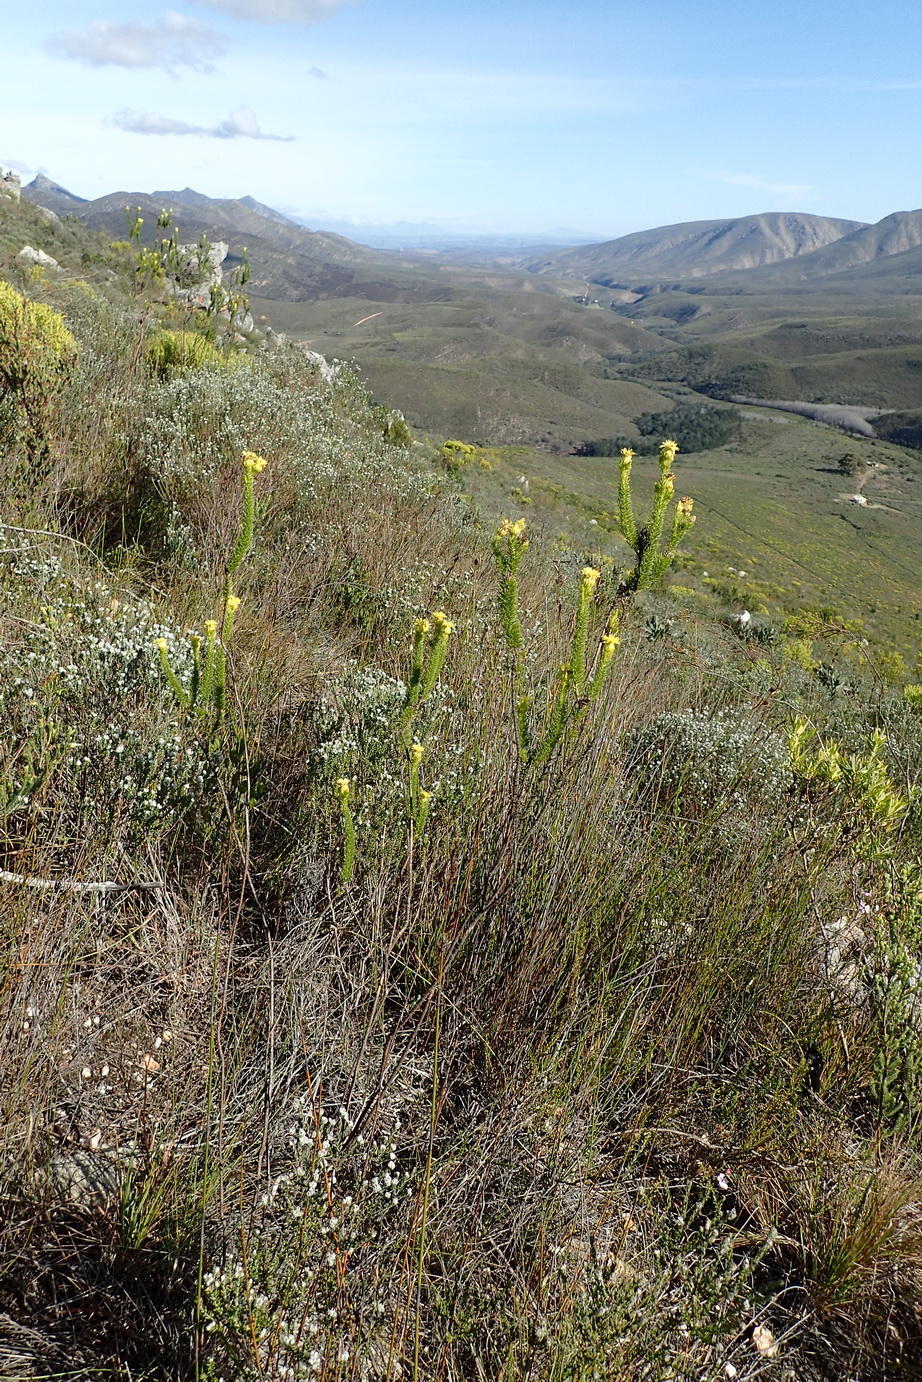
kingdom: Plantae
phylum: Tracheophyta
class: Magnoliopsida
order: Asterales
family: Asteraceae
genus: Pteronia
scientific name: Pteronia camphorata
